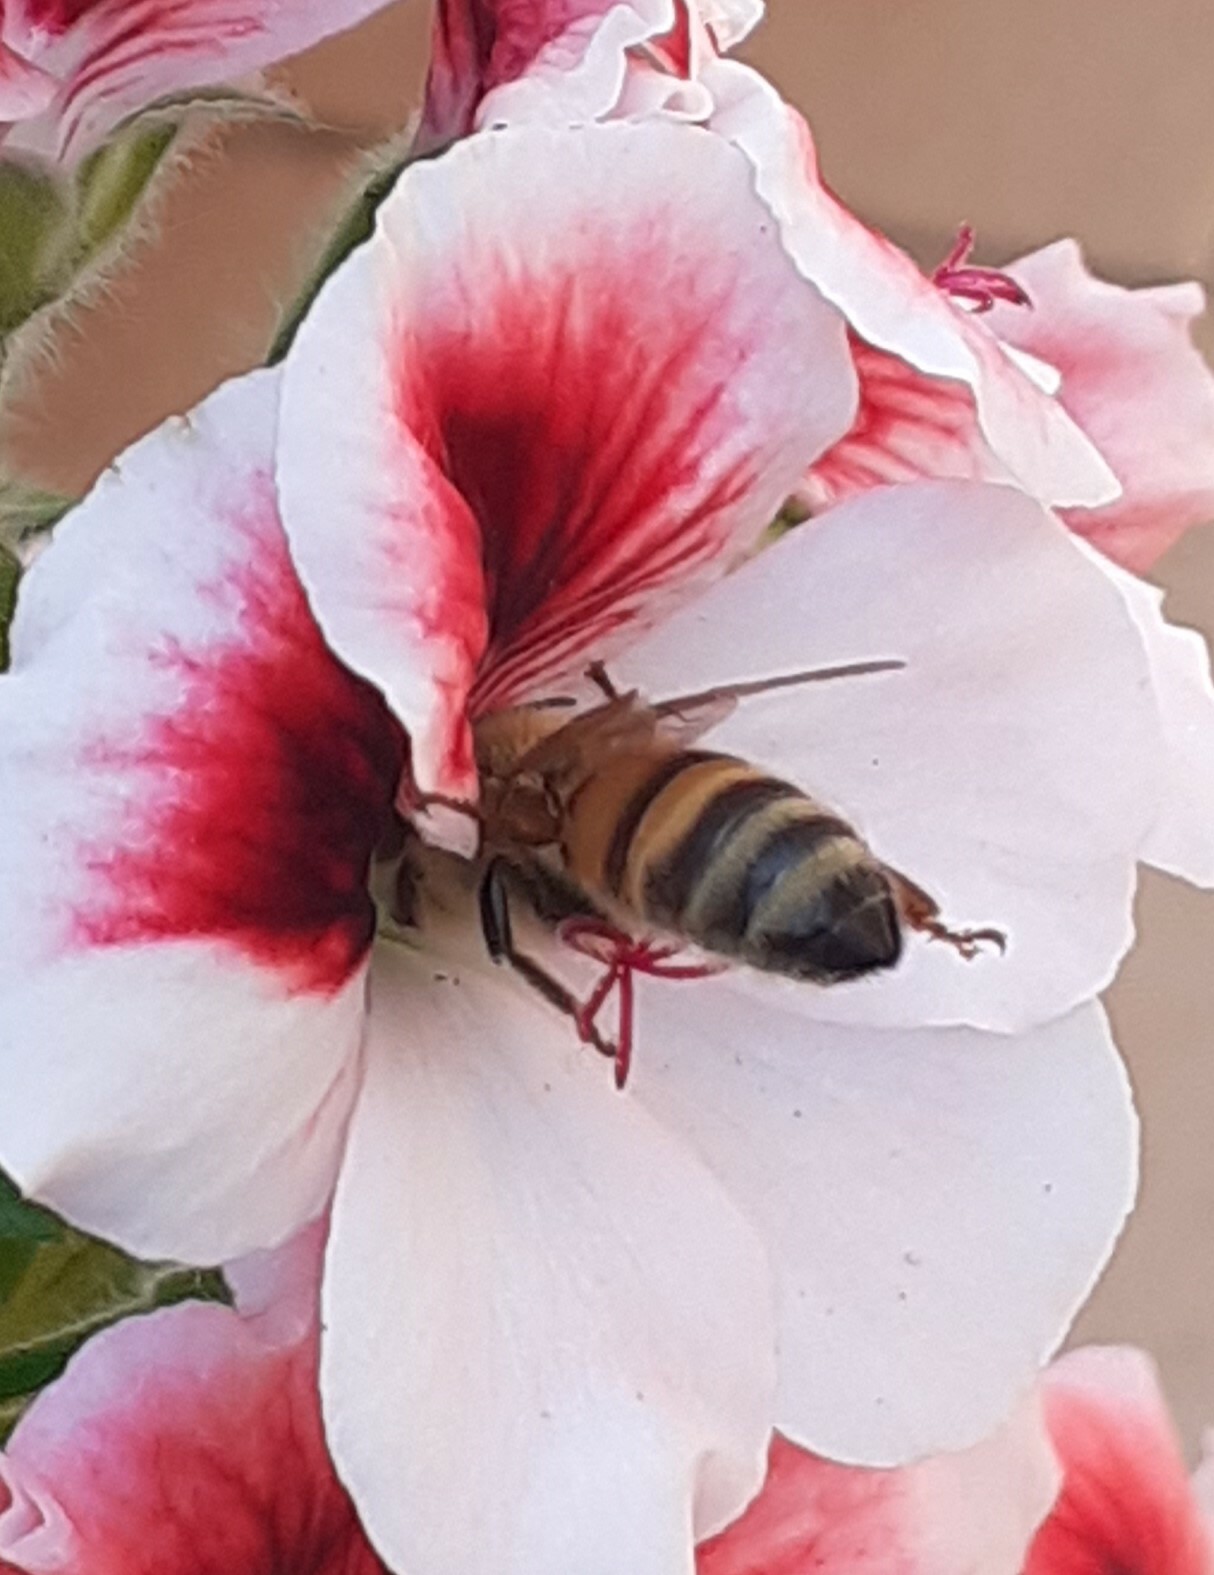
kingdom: Animalia
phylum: Arthropoda
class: Insecta
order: Hymenoptera
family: Apidae
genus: Apis
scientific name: Apis mellifera
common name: Honey bee
